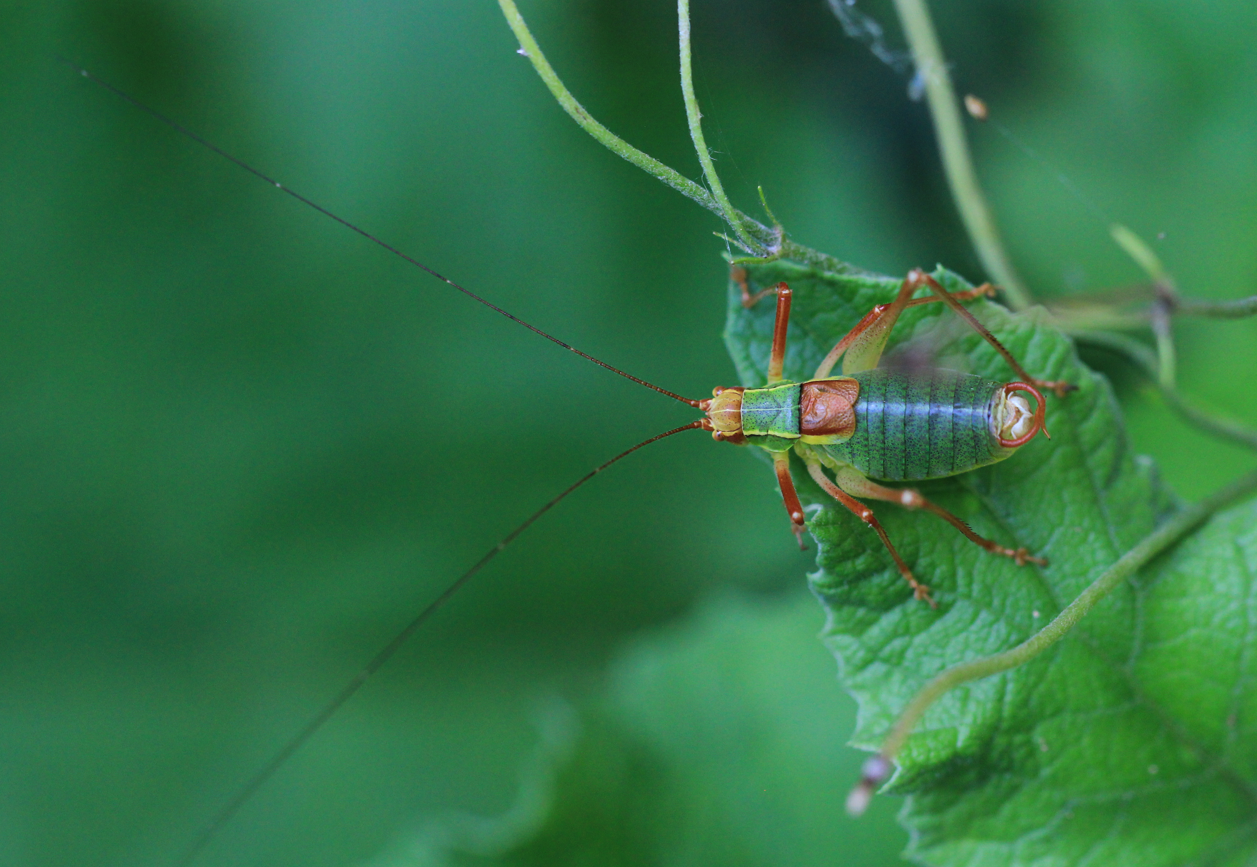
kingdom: Animalia
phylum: Arthropoda
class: Insecta
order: Orthoptera
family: Tettigoniidae
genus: Barbitistes
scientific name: Barbitistes serricauda
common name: Saw-tailed bush-cricket
